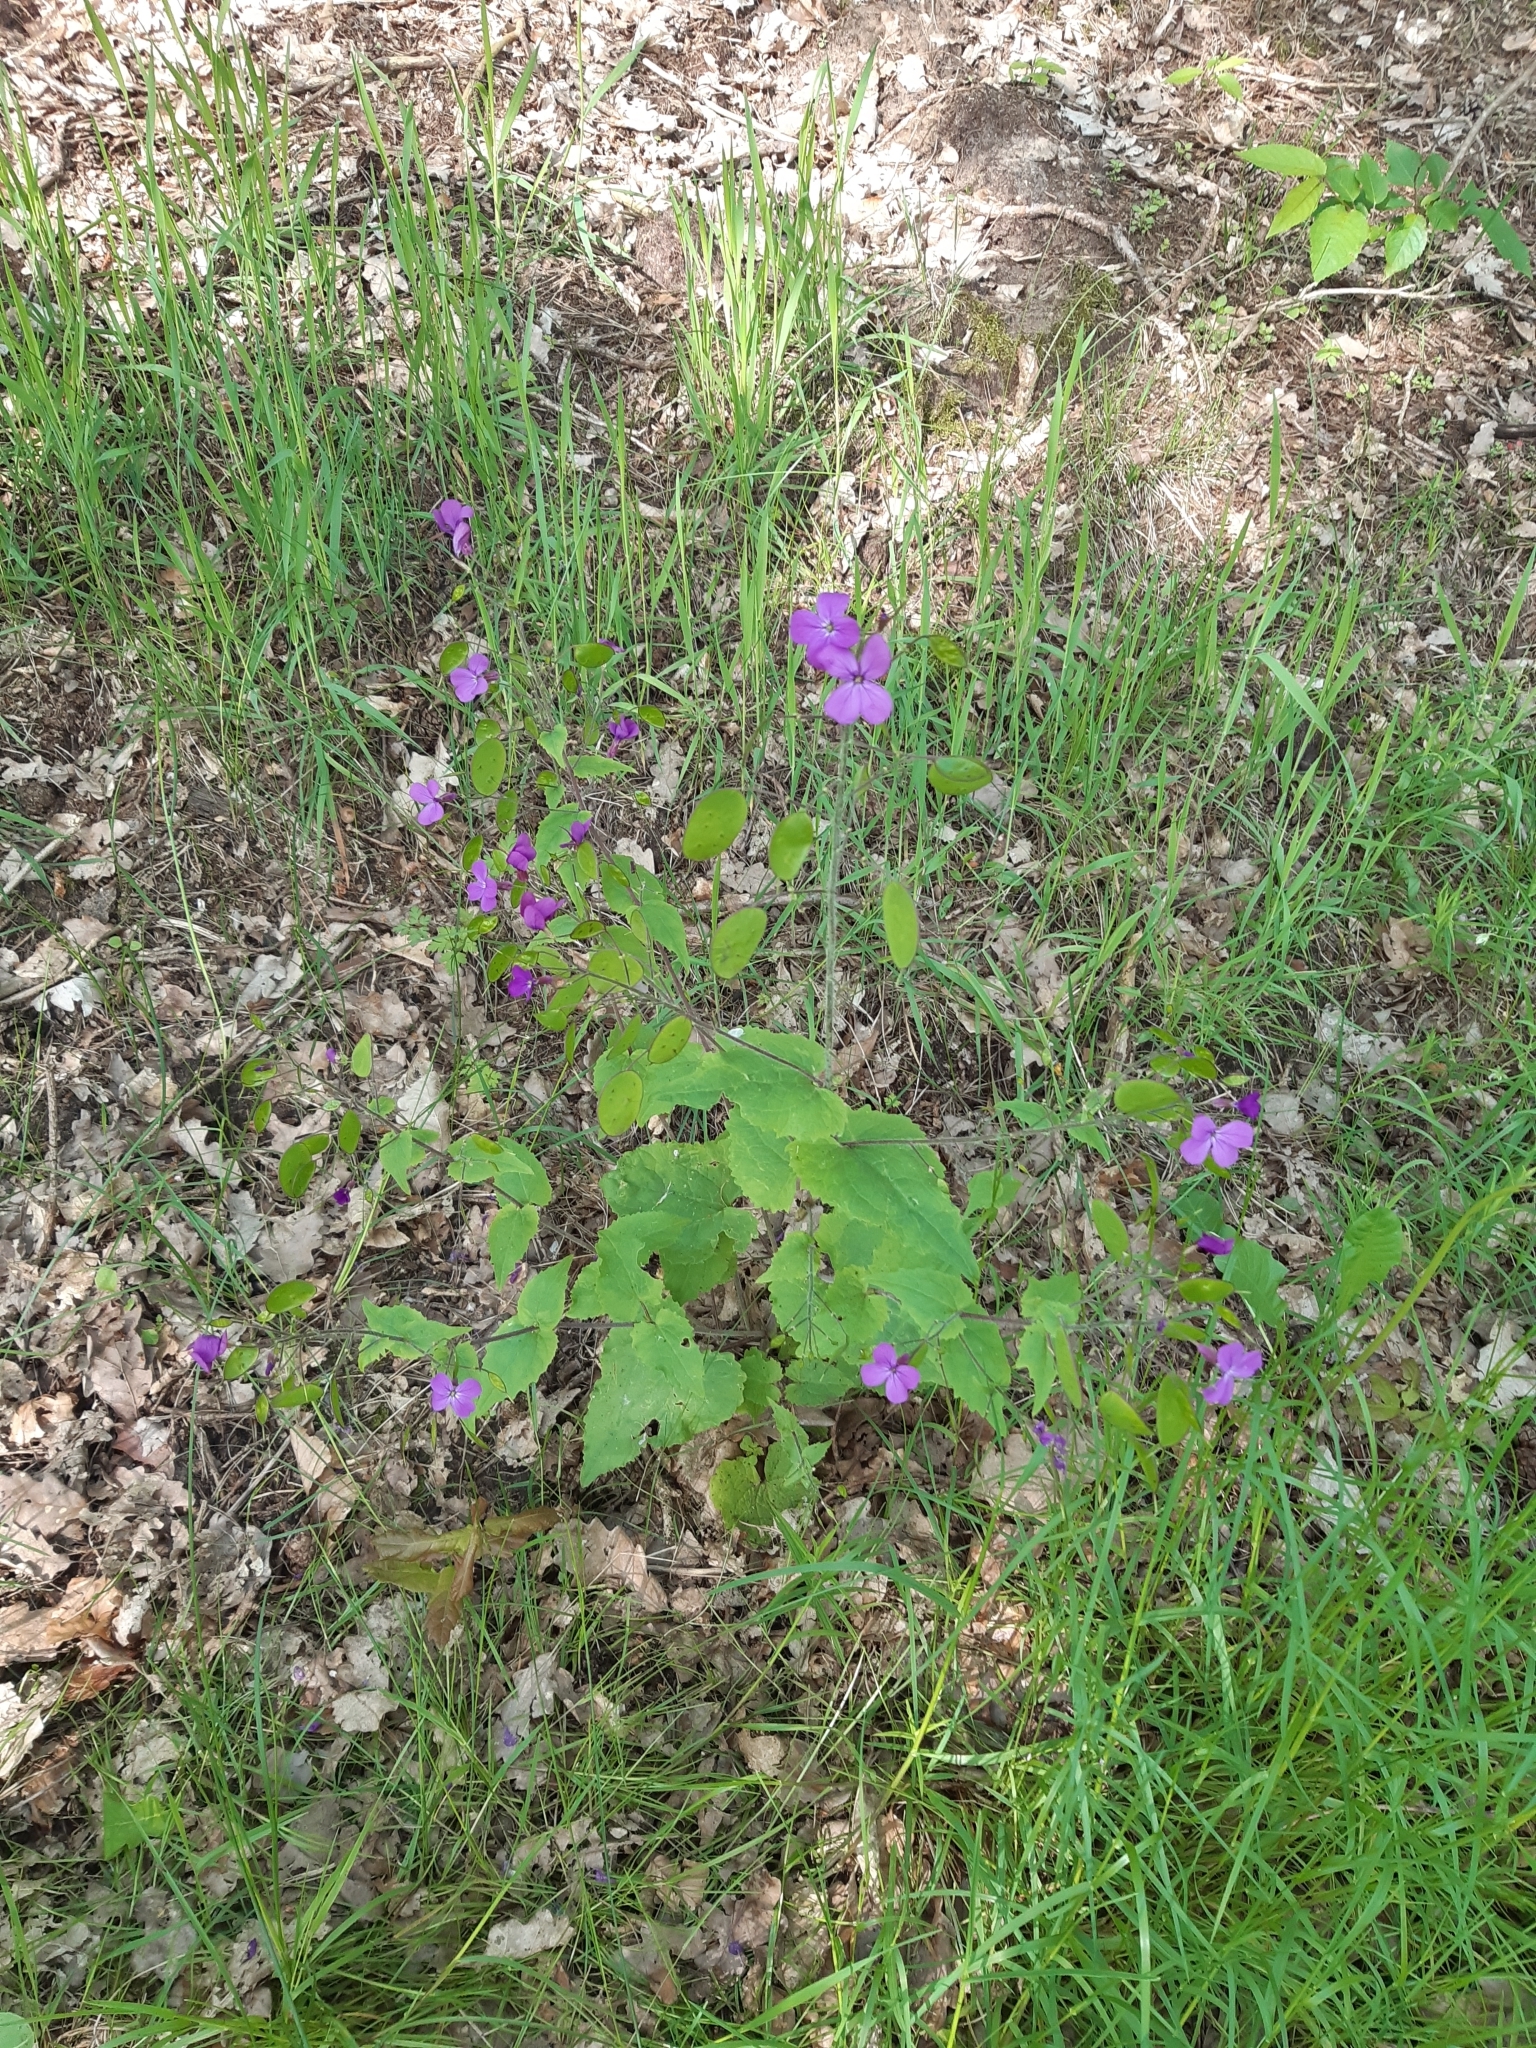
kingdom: Plantae
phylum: Tracheophyta
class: Magnoliopsida
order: Brassicales
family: Brassicaceae
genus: Lunaria
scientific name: Lunaria annua
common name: Honesty
